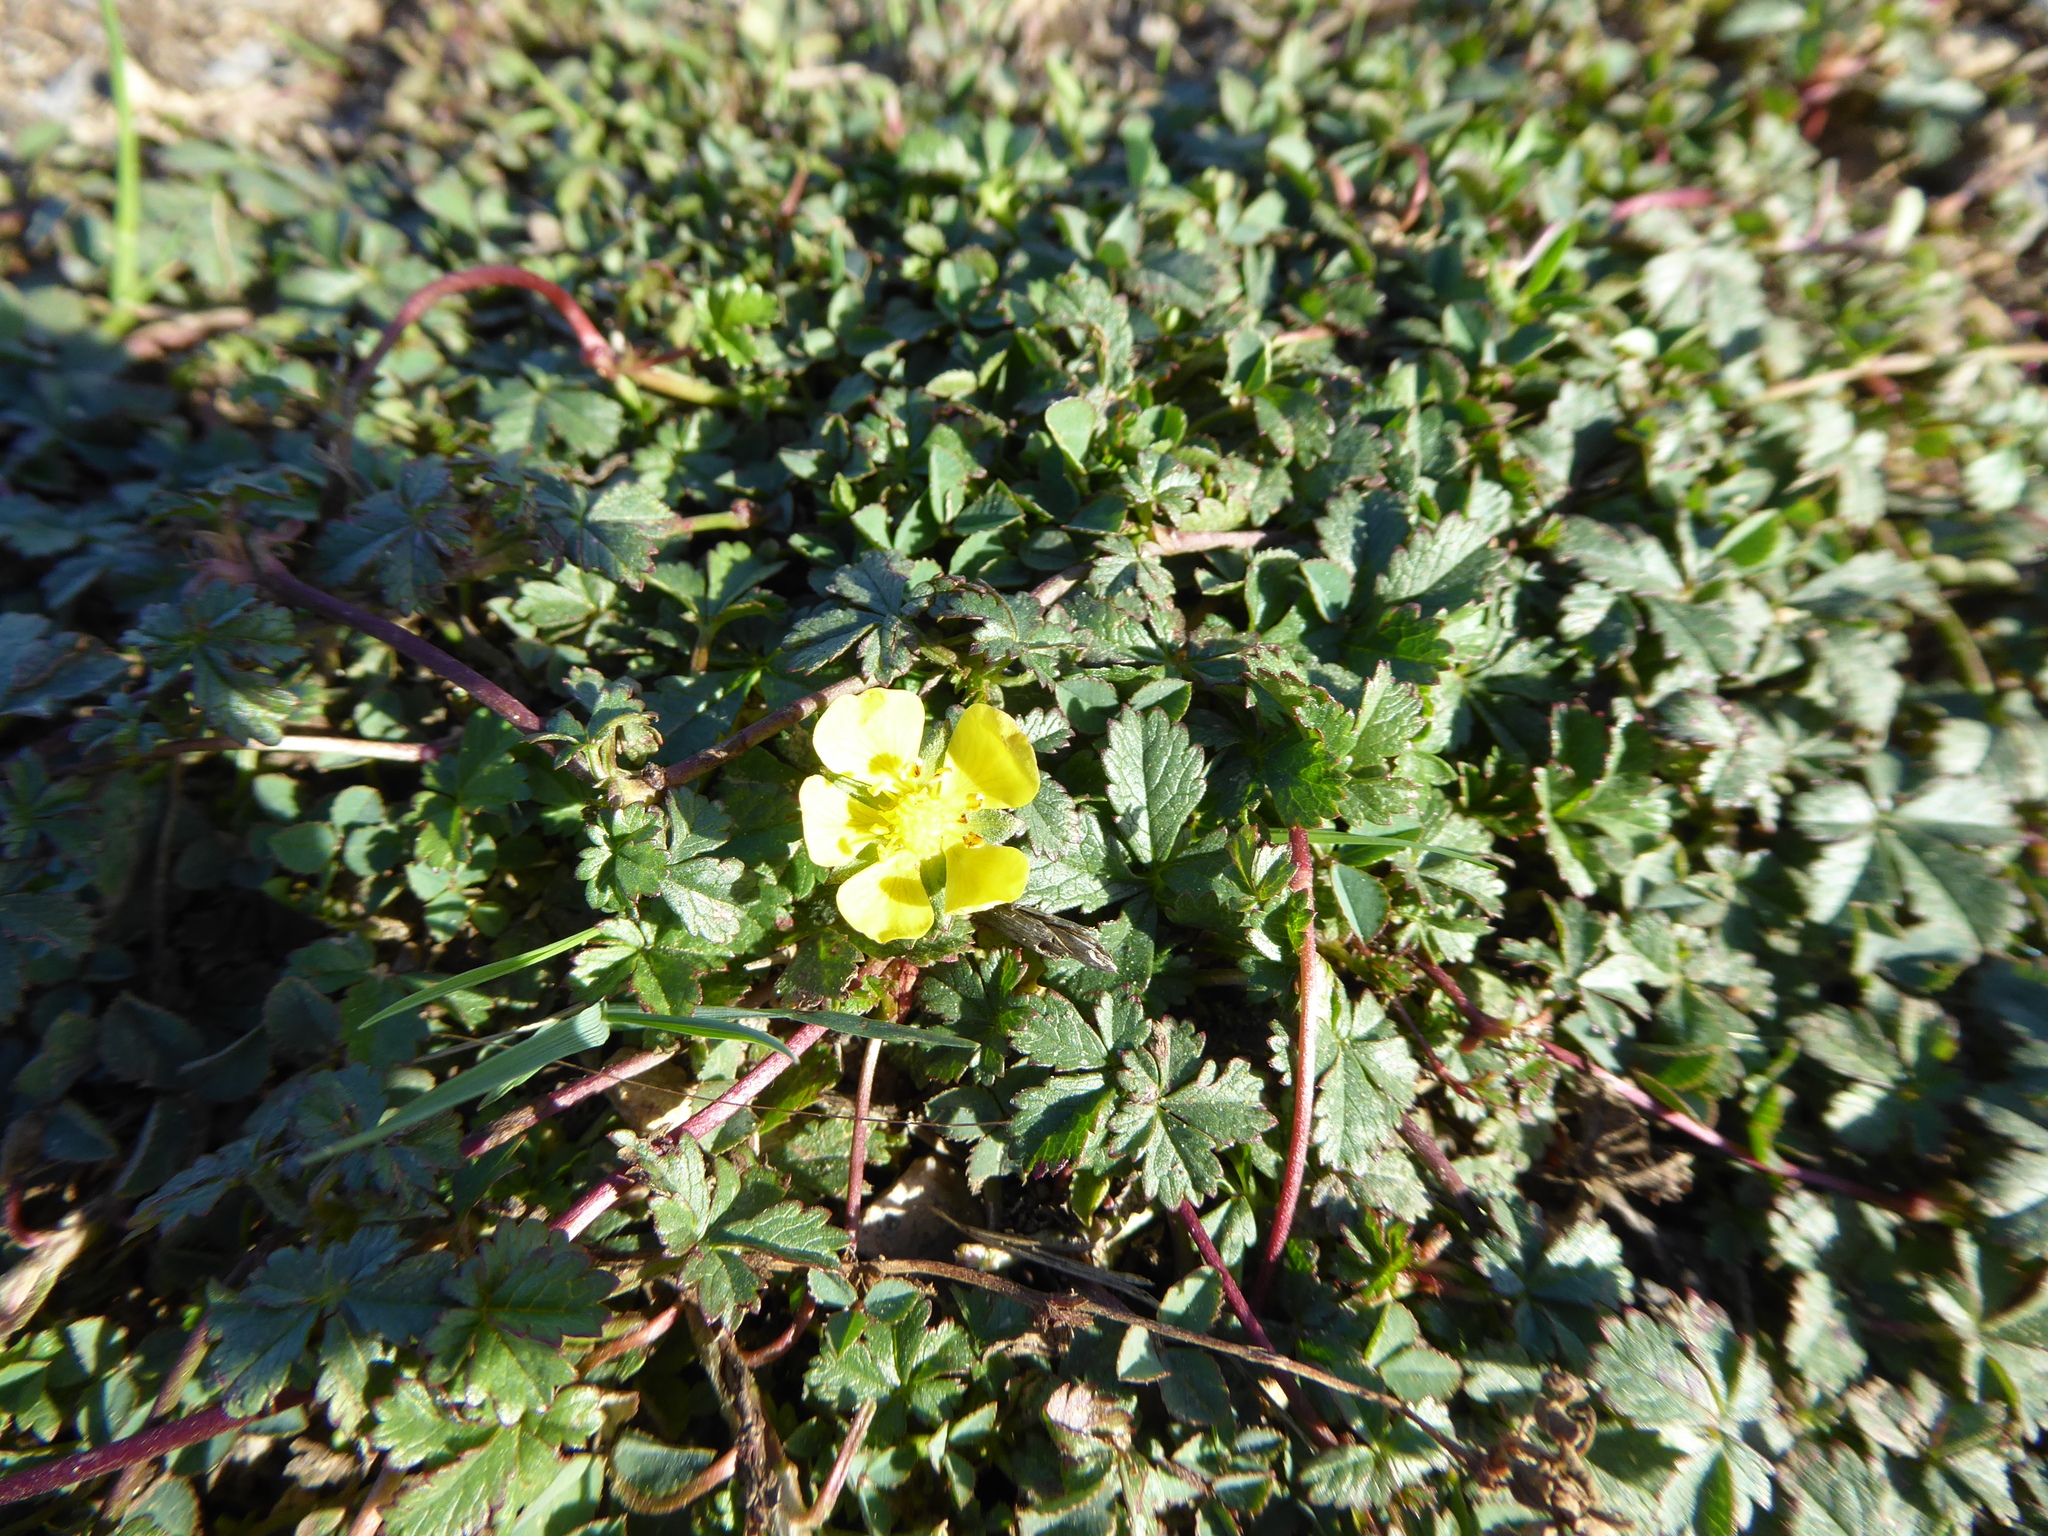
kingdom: Plantae
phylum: Tracheophyta
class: Magnoliopsida
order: Rosales
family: Rosaceae
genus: Potentilla
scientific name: Potentilla reptans
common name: Creeping cinquefoil
